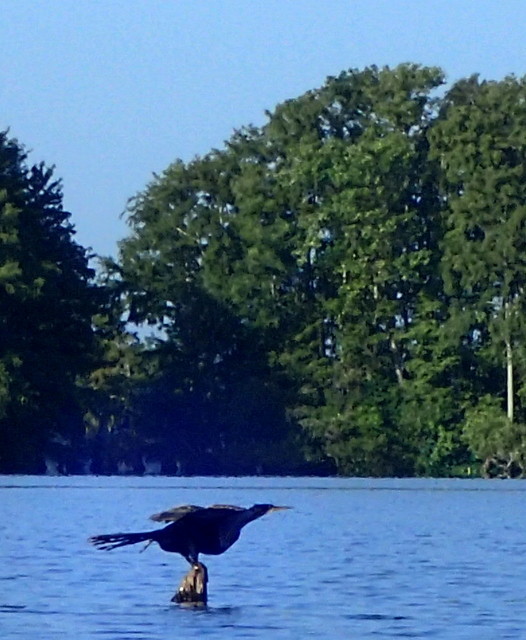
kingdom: Animalia
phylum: Chordata
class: Aves
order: Suliformes
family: Anhingidae
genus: Anhinga
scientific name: Anhinga anhinga
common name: Anhinga
